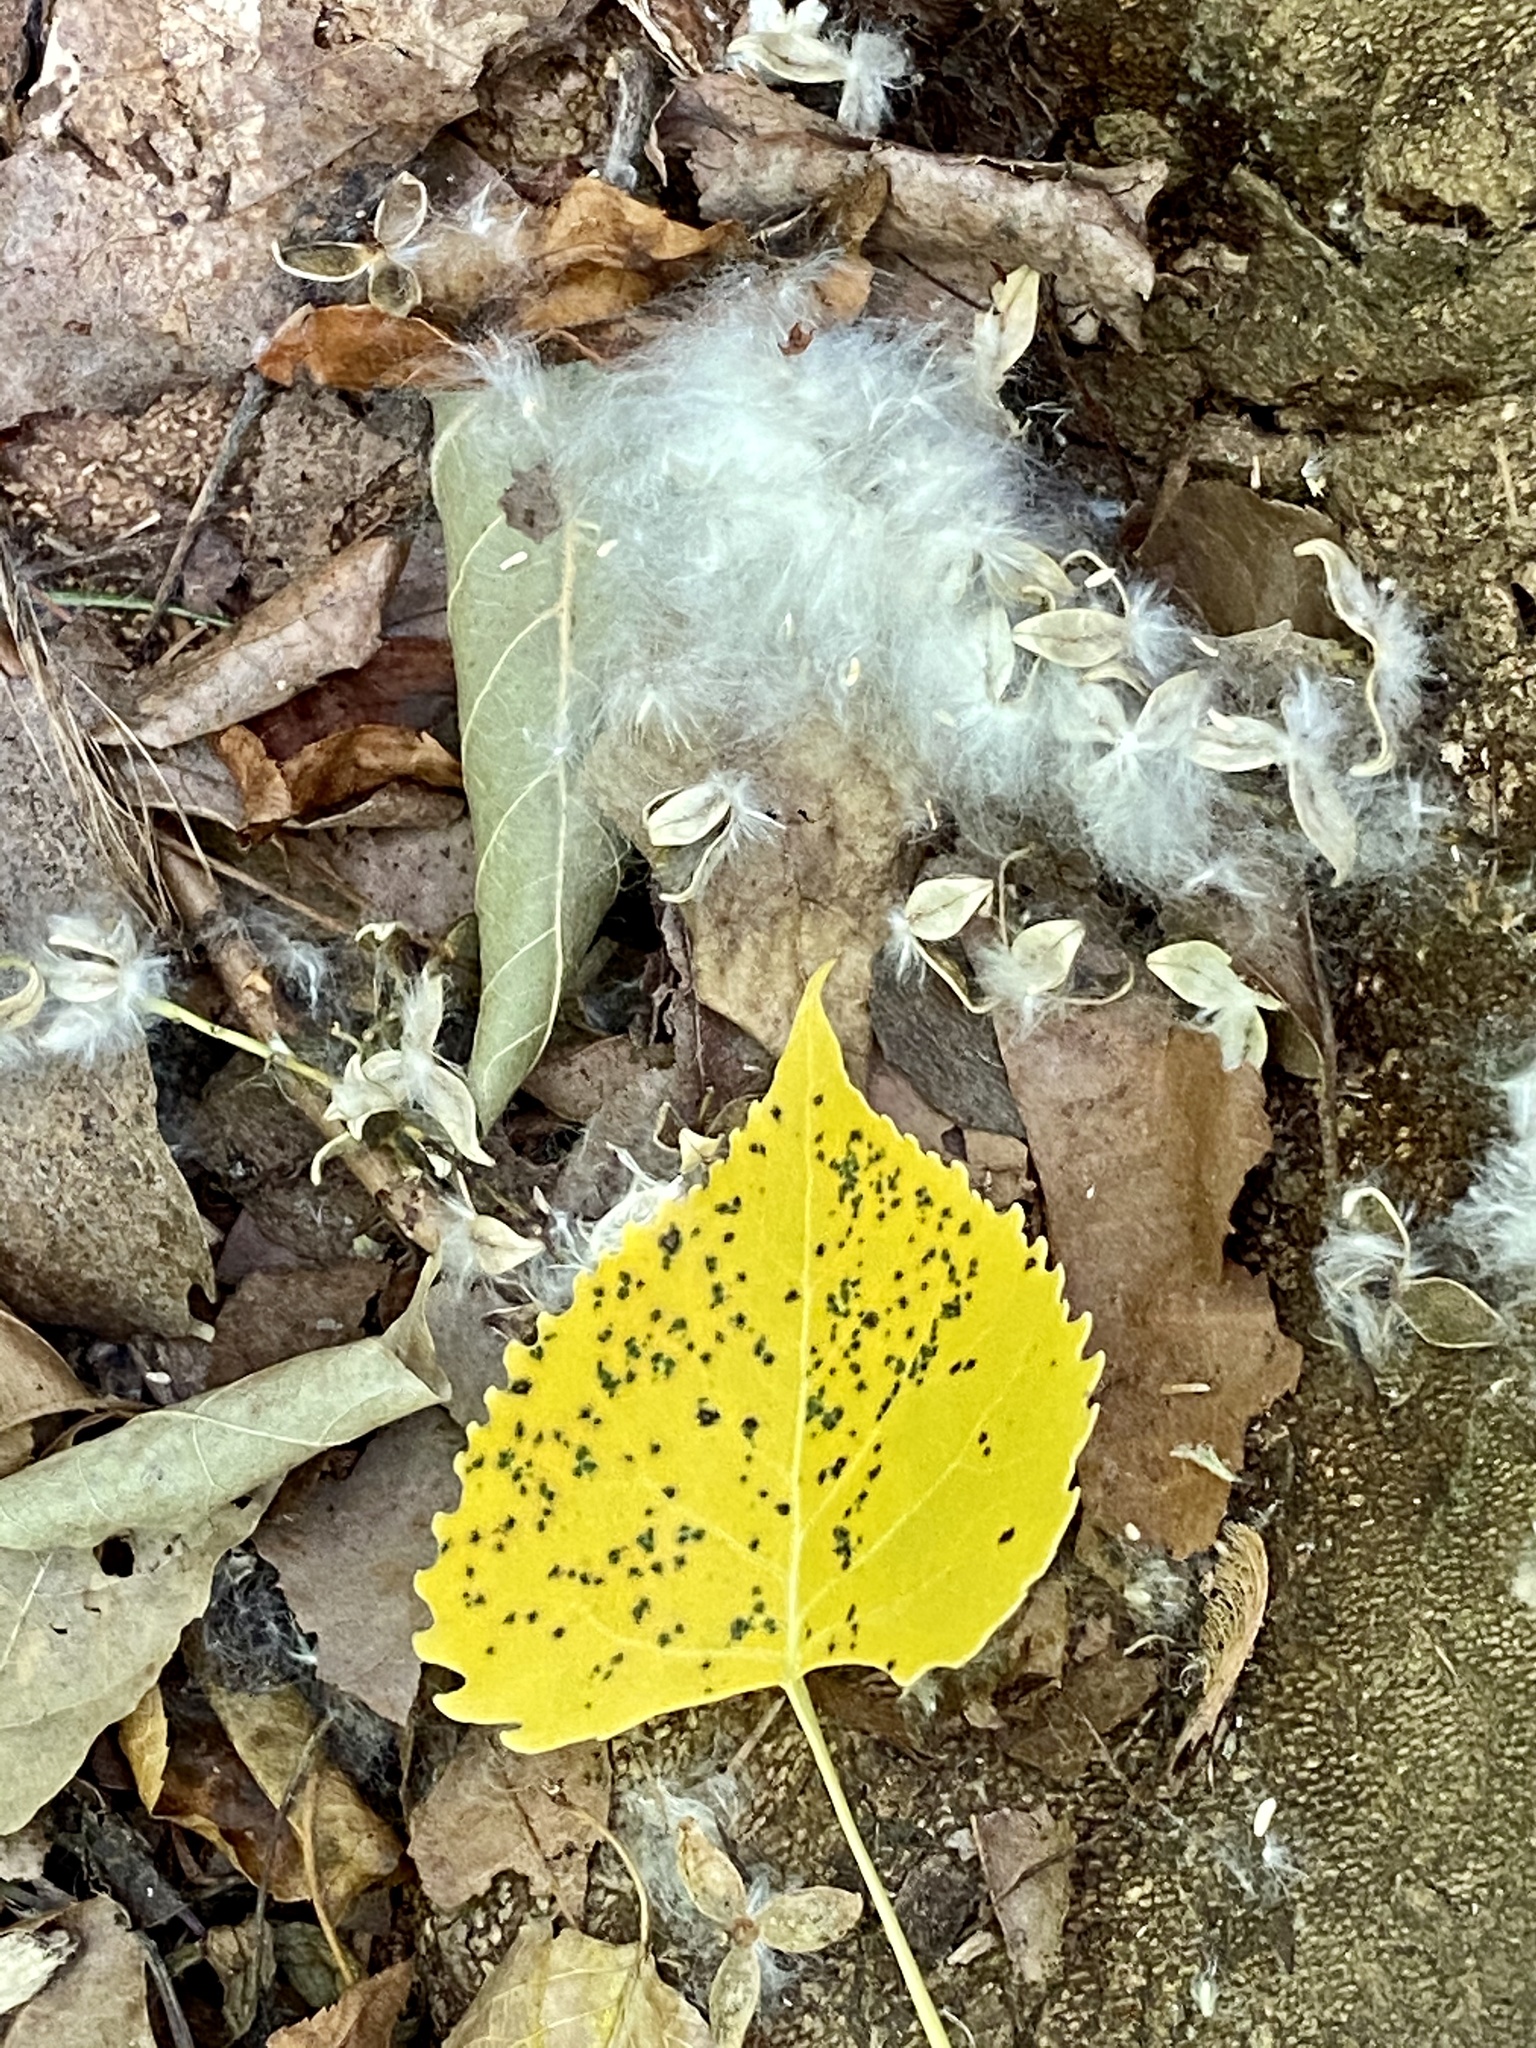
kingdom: Plantae
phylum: Tracheophyta
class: Magnoliopsida
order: Malpighiales
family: Salicaceae
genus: Populus
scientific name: Populus deltoides
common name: Eastern cottonwood
